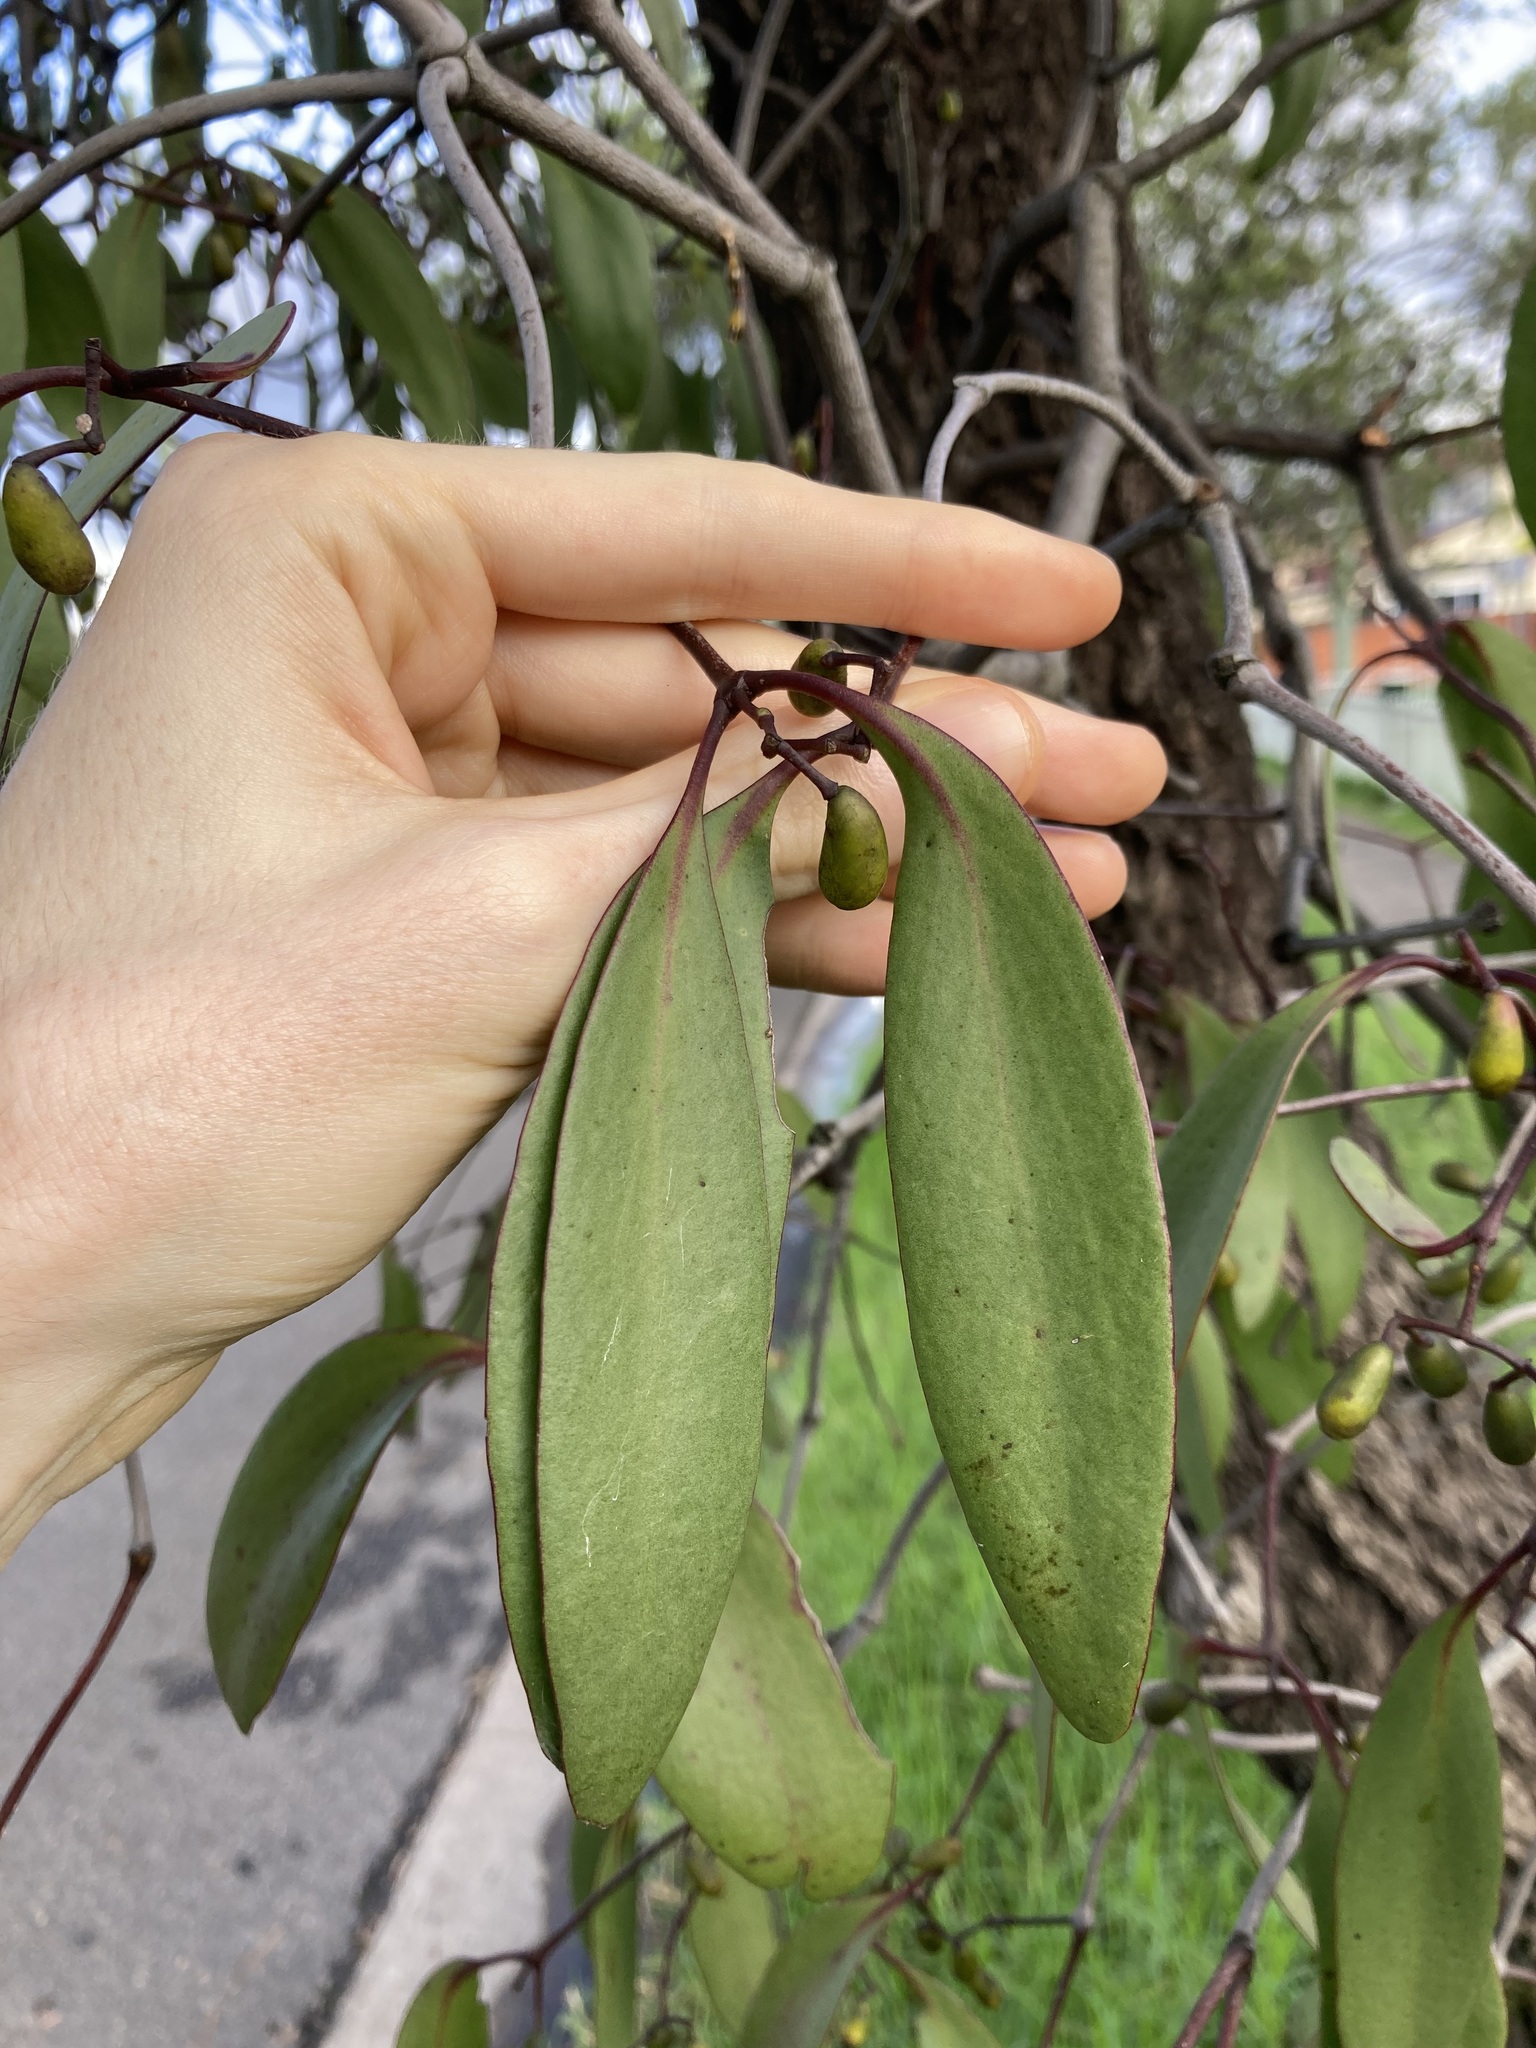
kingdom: Plantae
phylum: Tracheophyta
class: Magnoliopsida
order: Santalales
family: Loranthaceae
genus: Muellerina
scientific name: Muellerina eucalyptoides
